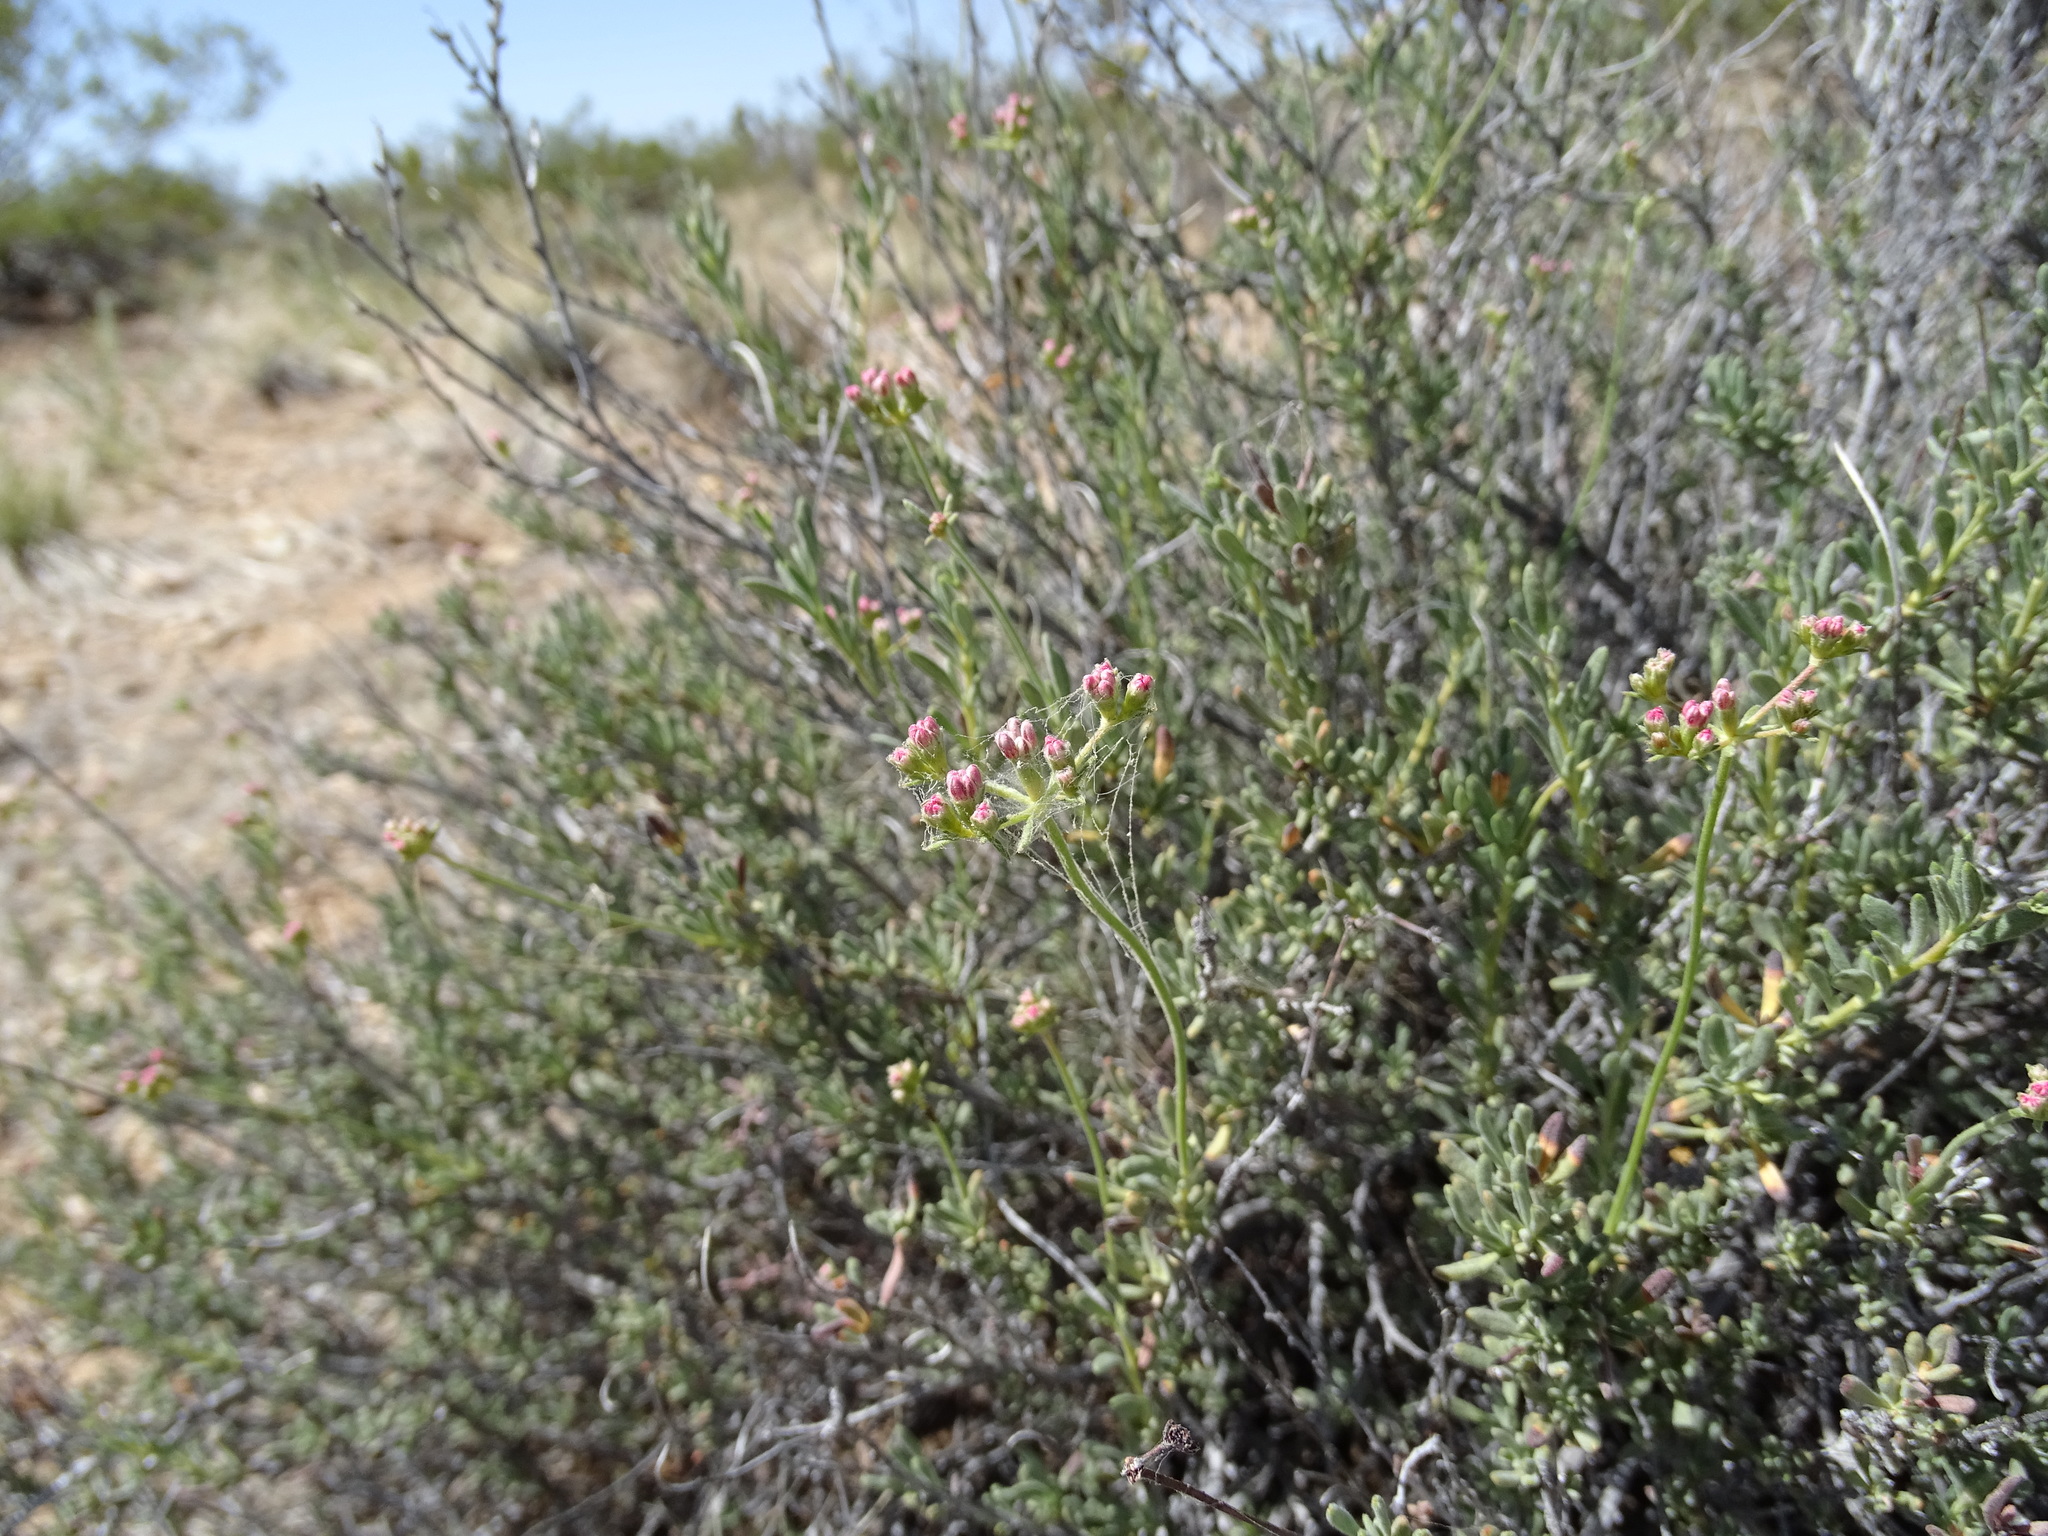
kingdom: Plantae
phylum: Tracheophyta
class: Magnoliopsida
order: Caryophyllales
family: Polygonaceae
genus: Eriogonum
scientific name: Eriogonum fasciculatum
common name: California wild buckwheat
